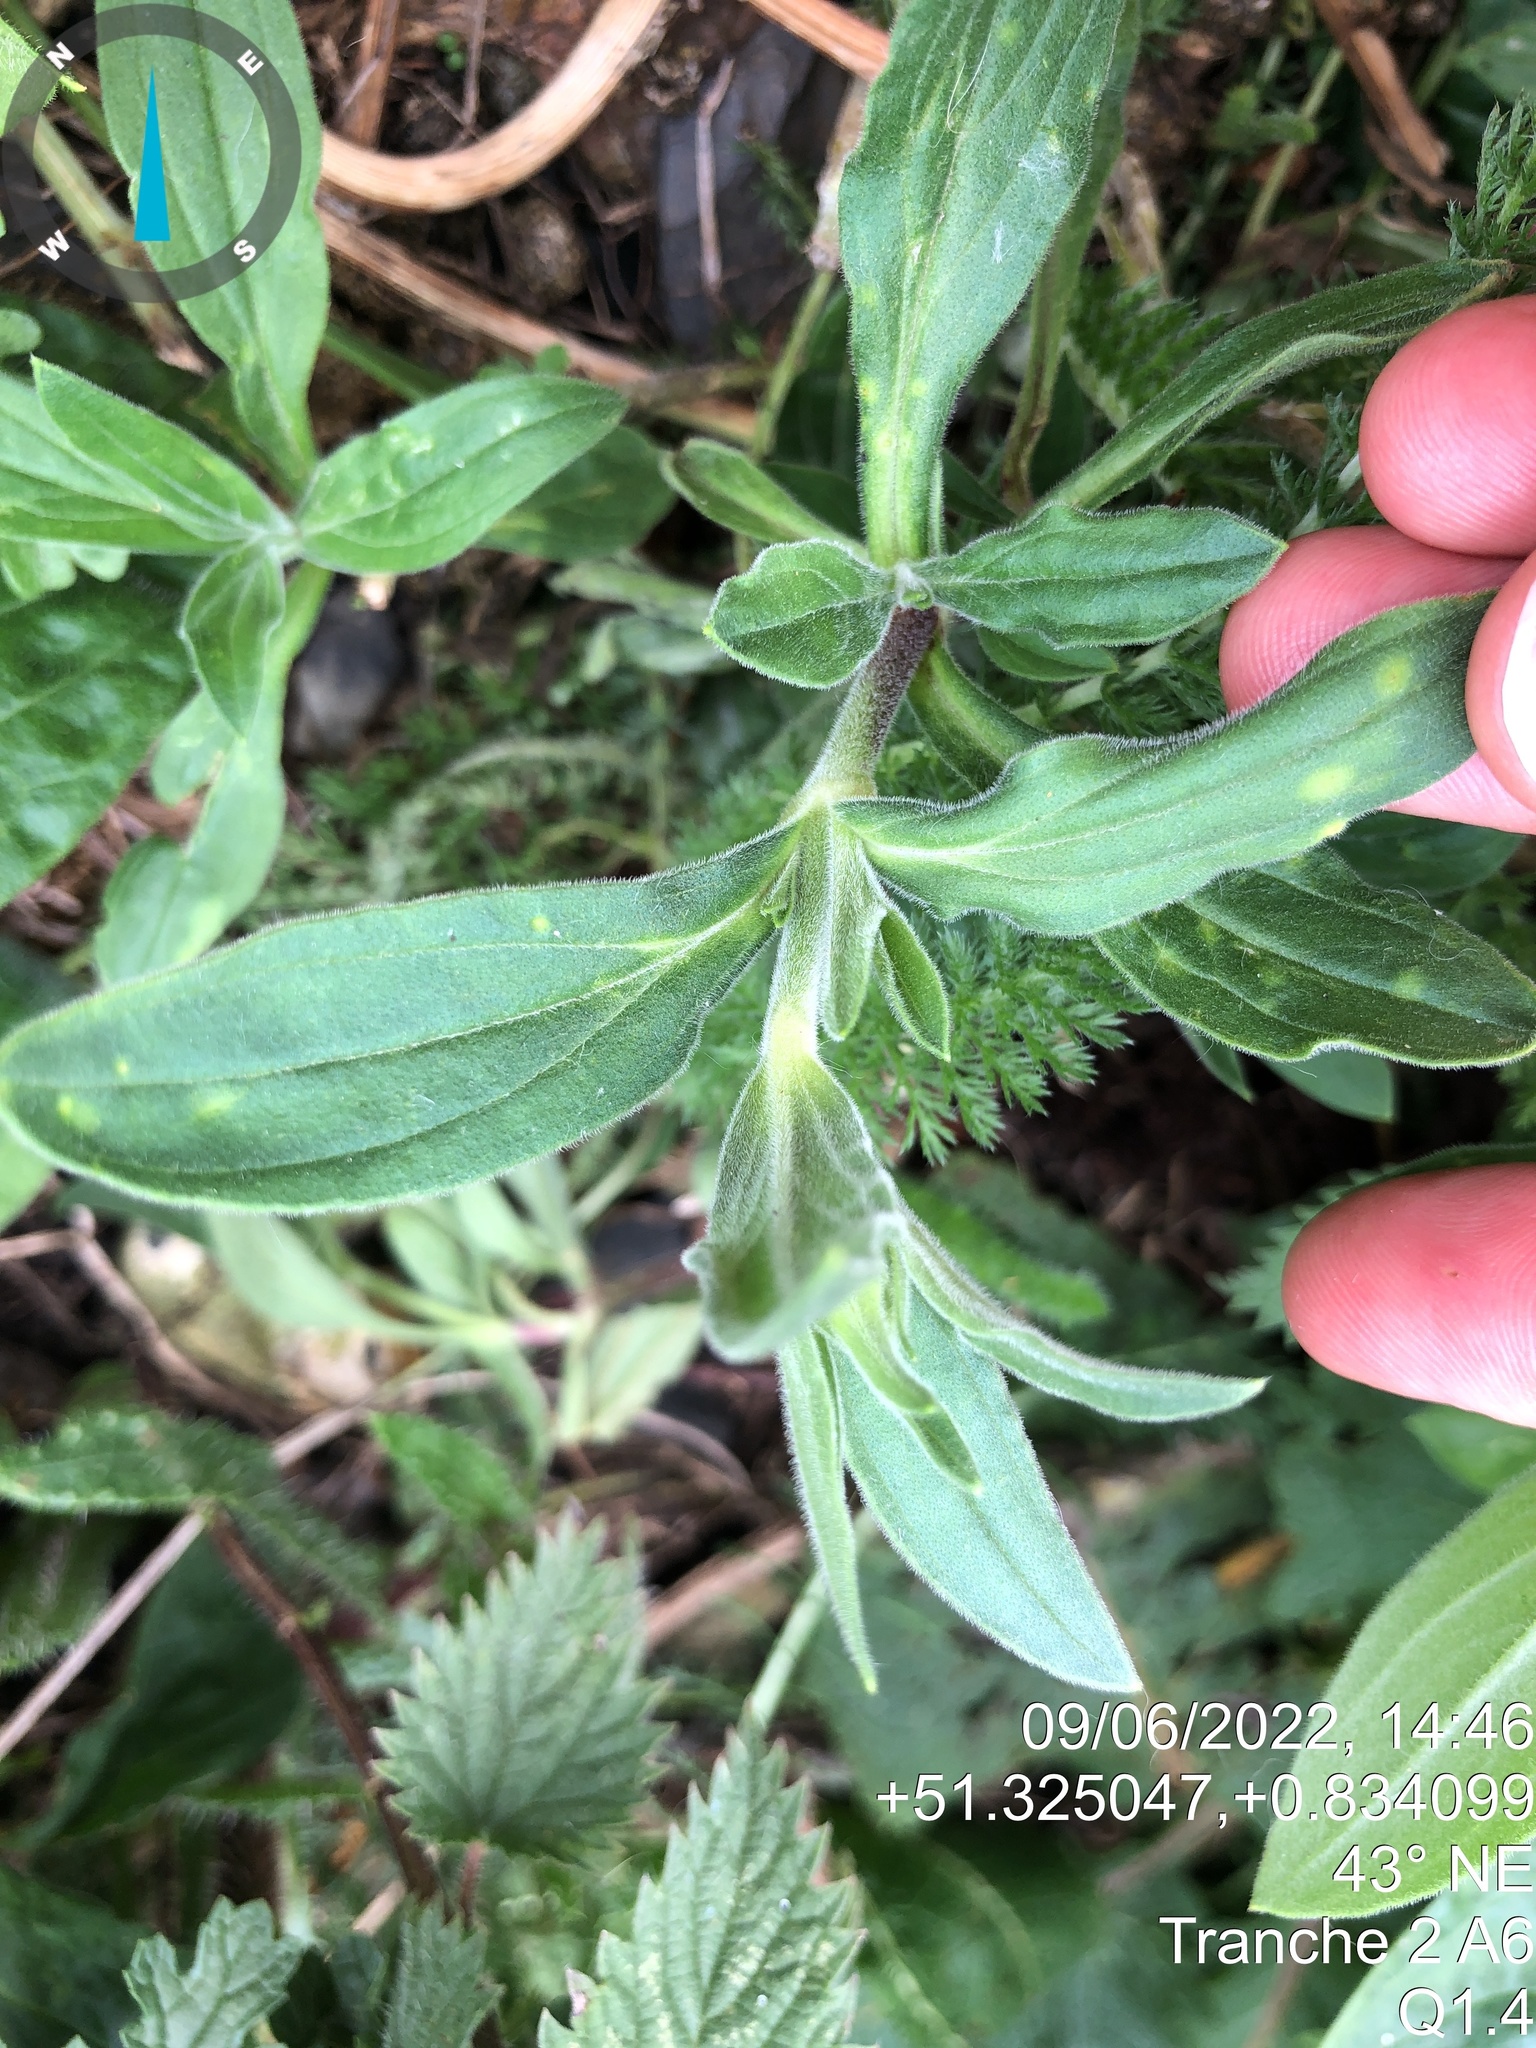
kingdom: Plantae
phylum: Tracheophyta
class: Magnoliopsida
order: Caryophyllales
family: Caryophyllaceae
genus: Silene
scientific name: Silene latifolia
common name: White campion
